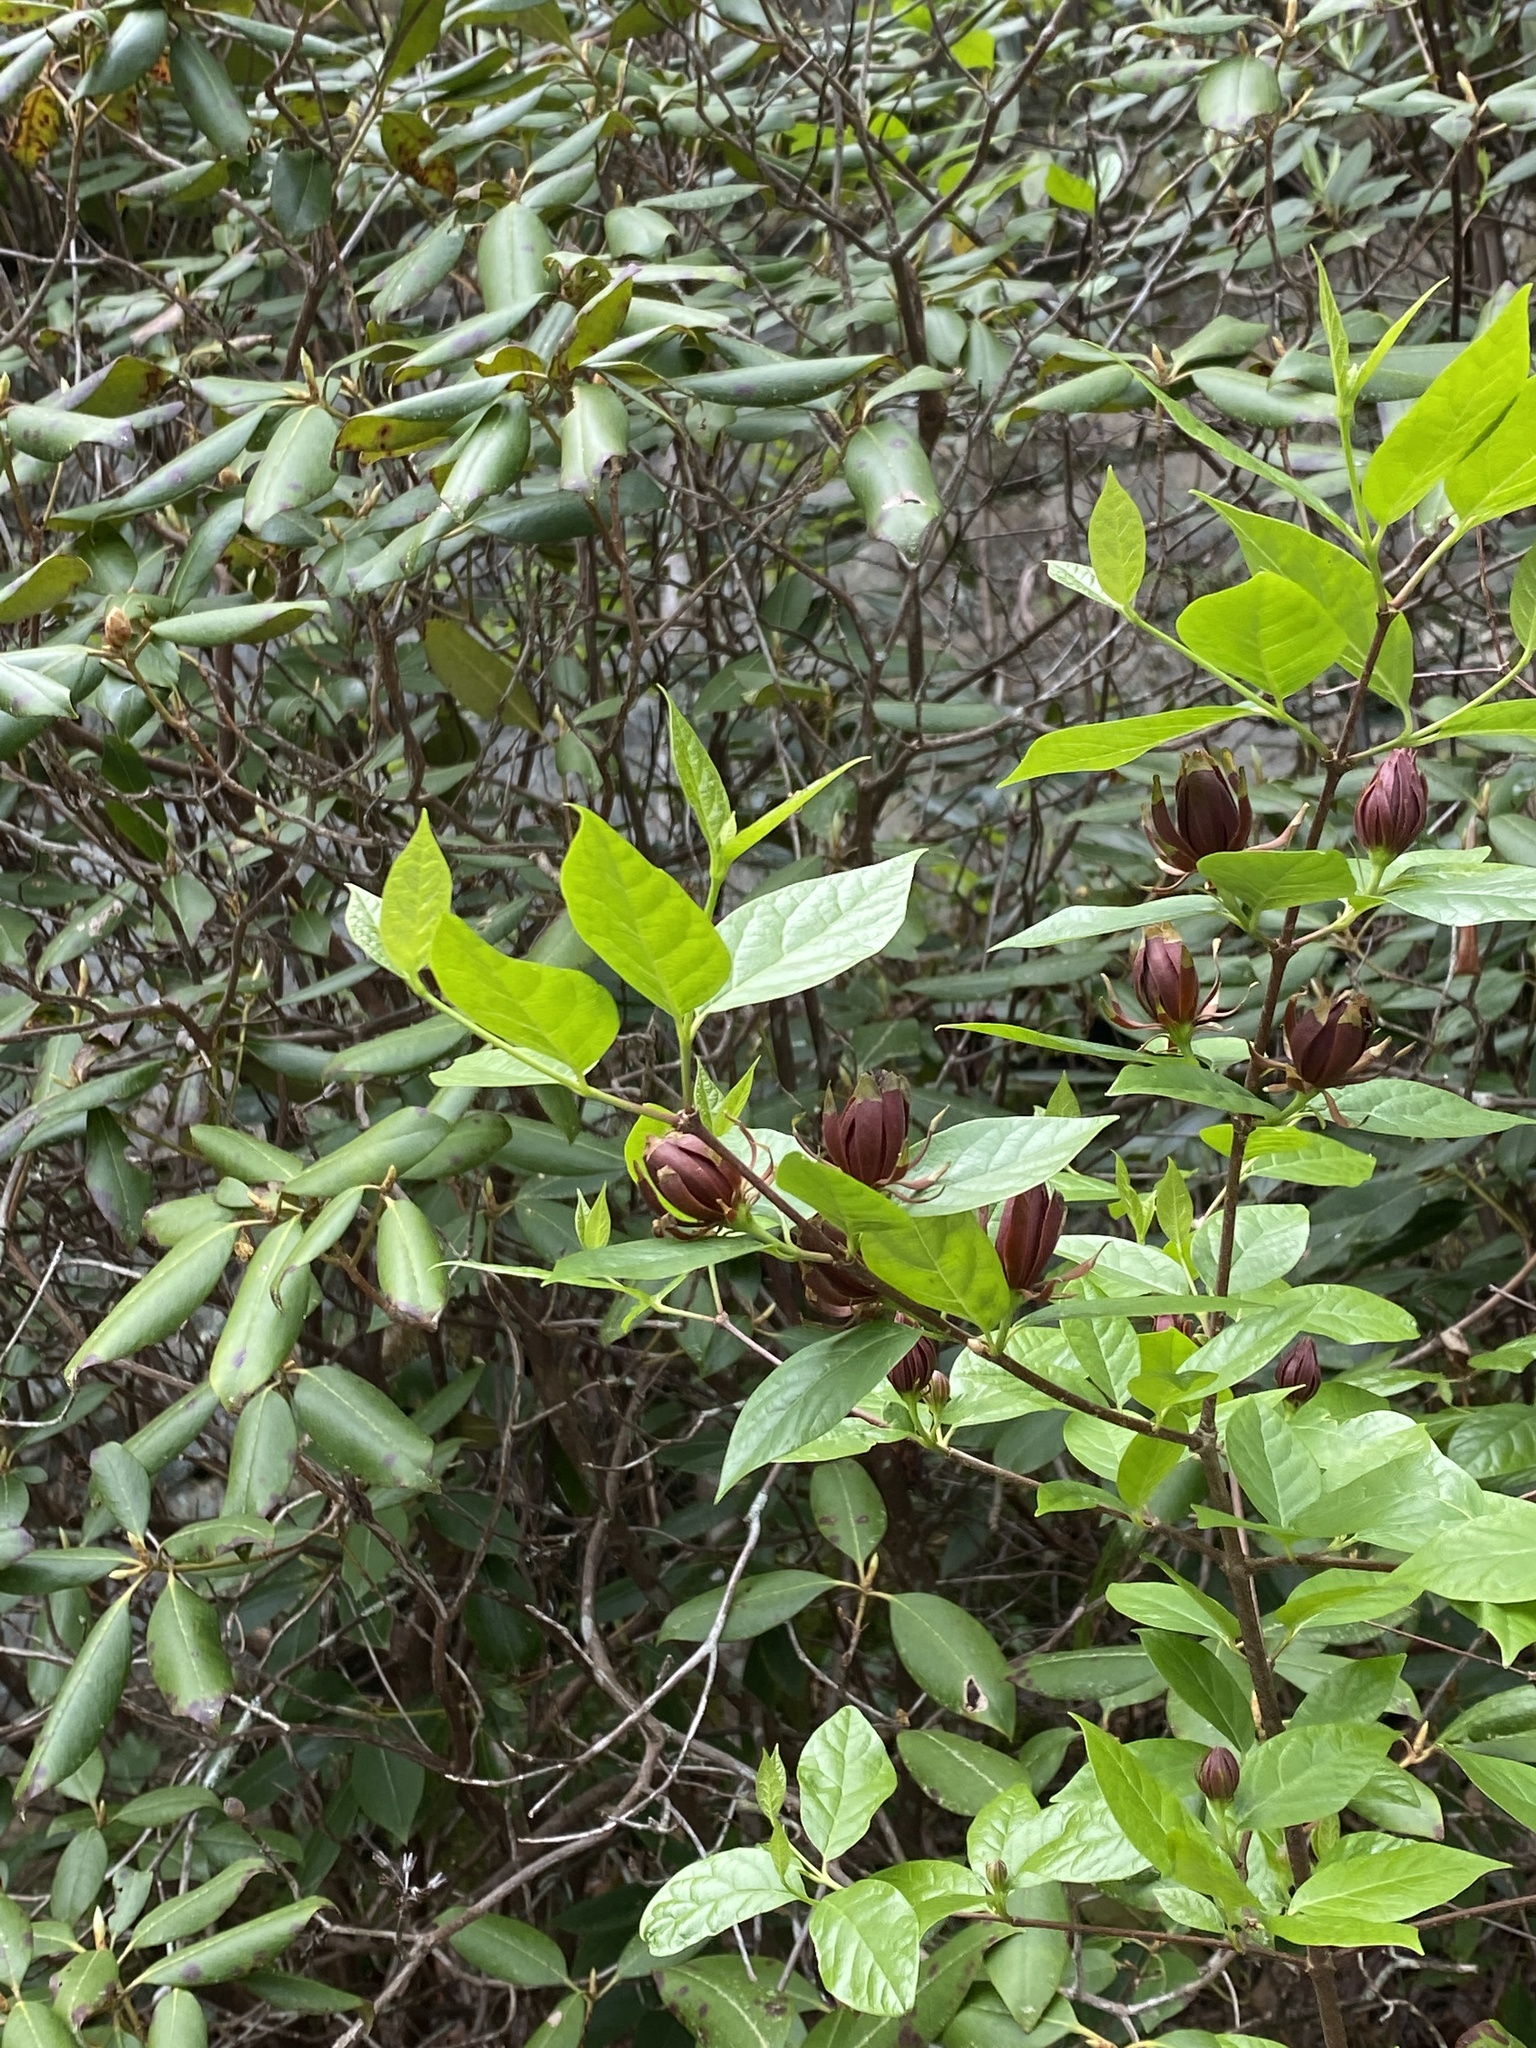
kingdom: Plantae
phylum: Tracheophyta
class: Magnoliopsida
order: Laurales
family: Calycanthaceae
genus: Calycanthus
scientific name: Calycanthus floridus
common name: Carolina-allspice
